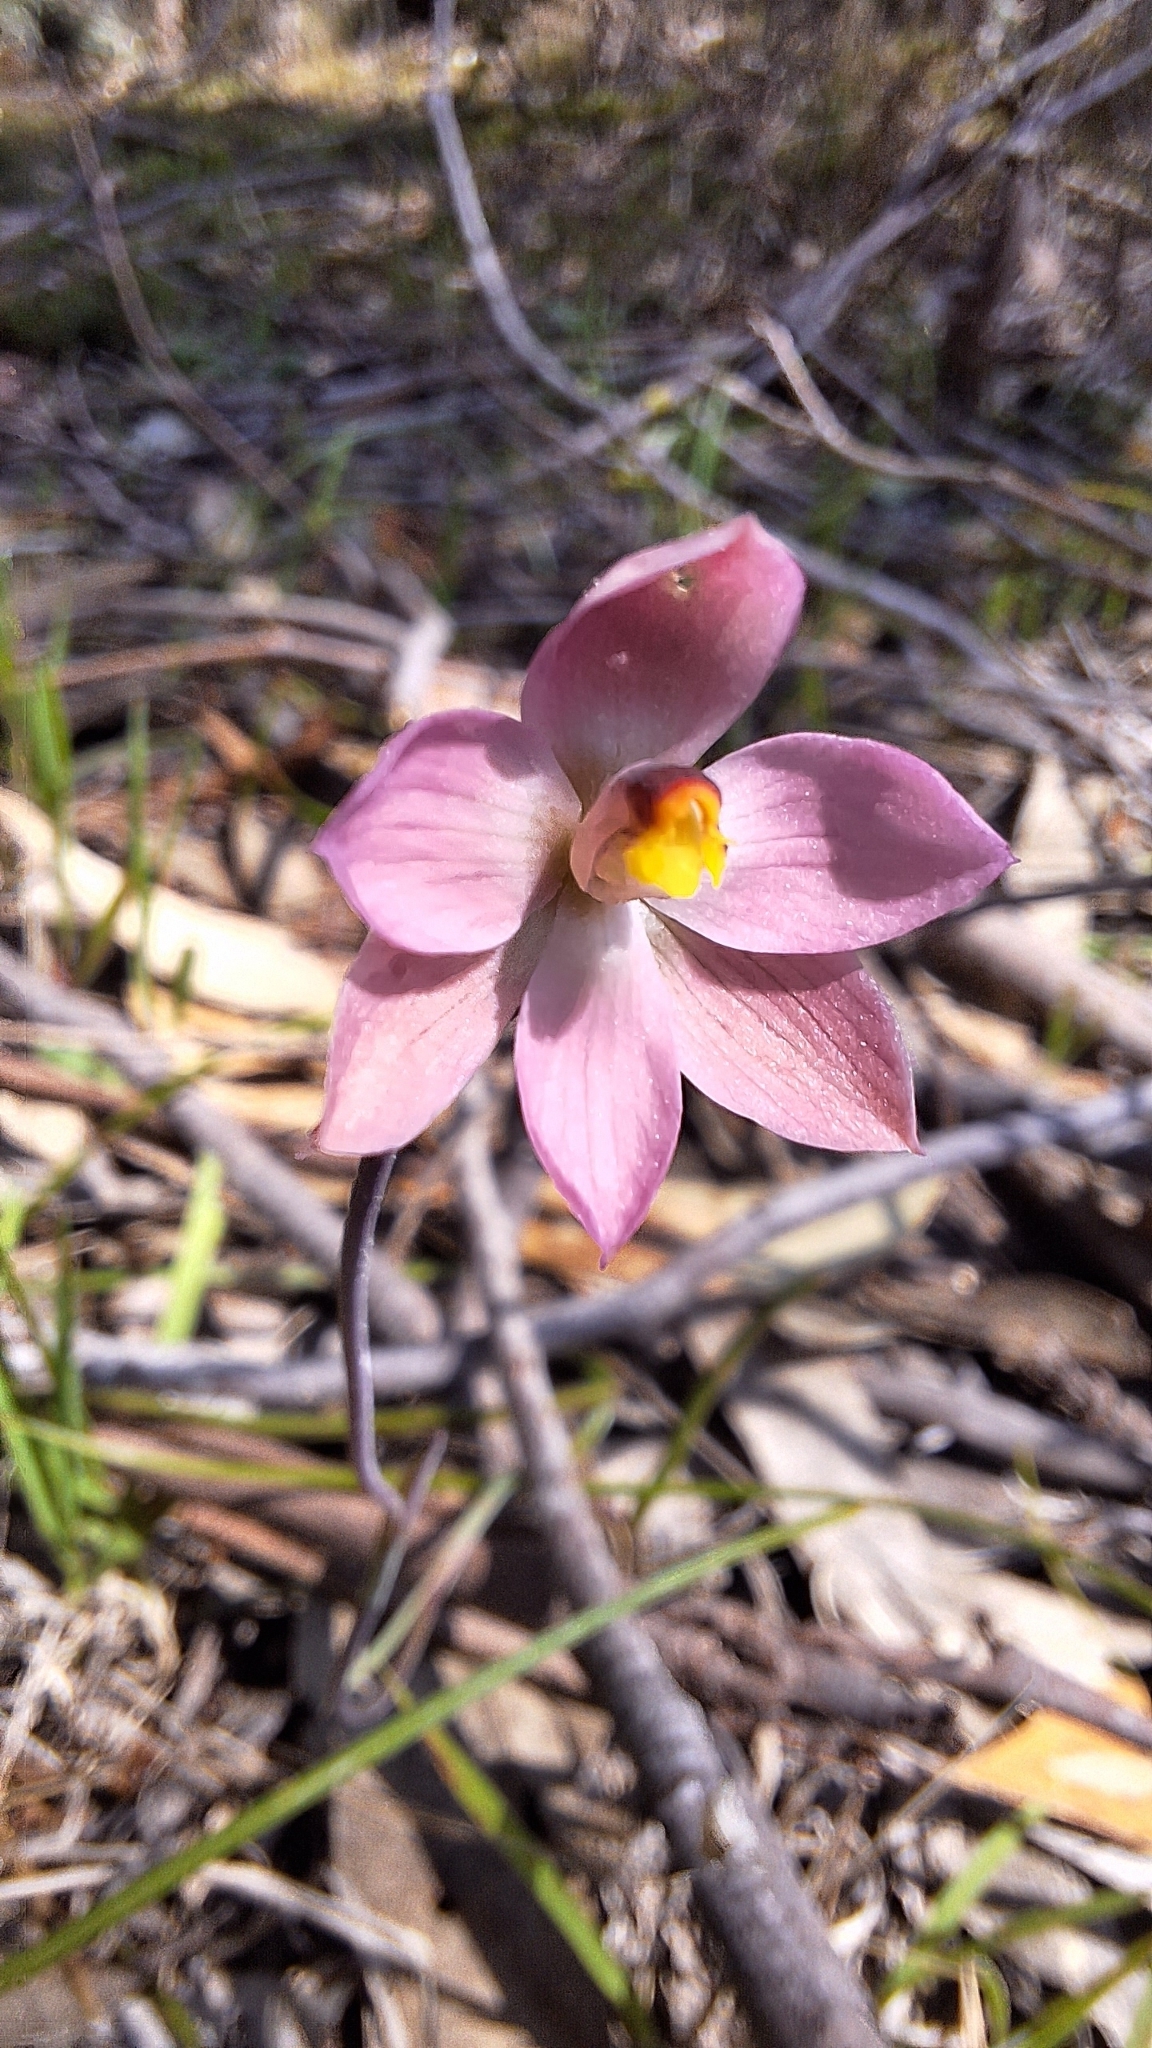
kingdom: Plantae
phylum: Tracheophyta
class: Liliopsida
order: Asparagales
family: Orchidaceae
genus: Thelymitra
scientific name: Thelymitra rubra
